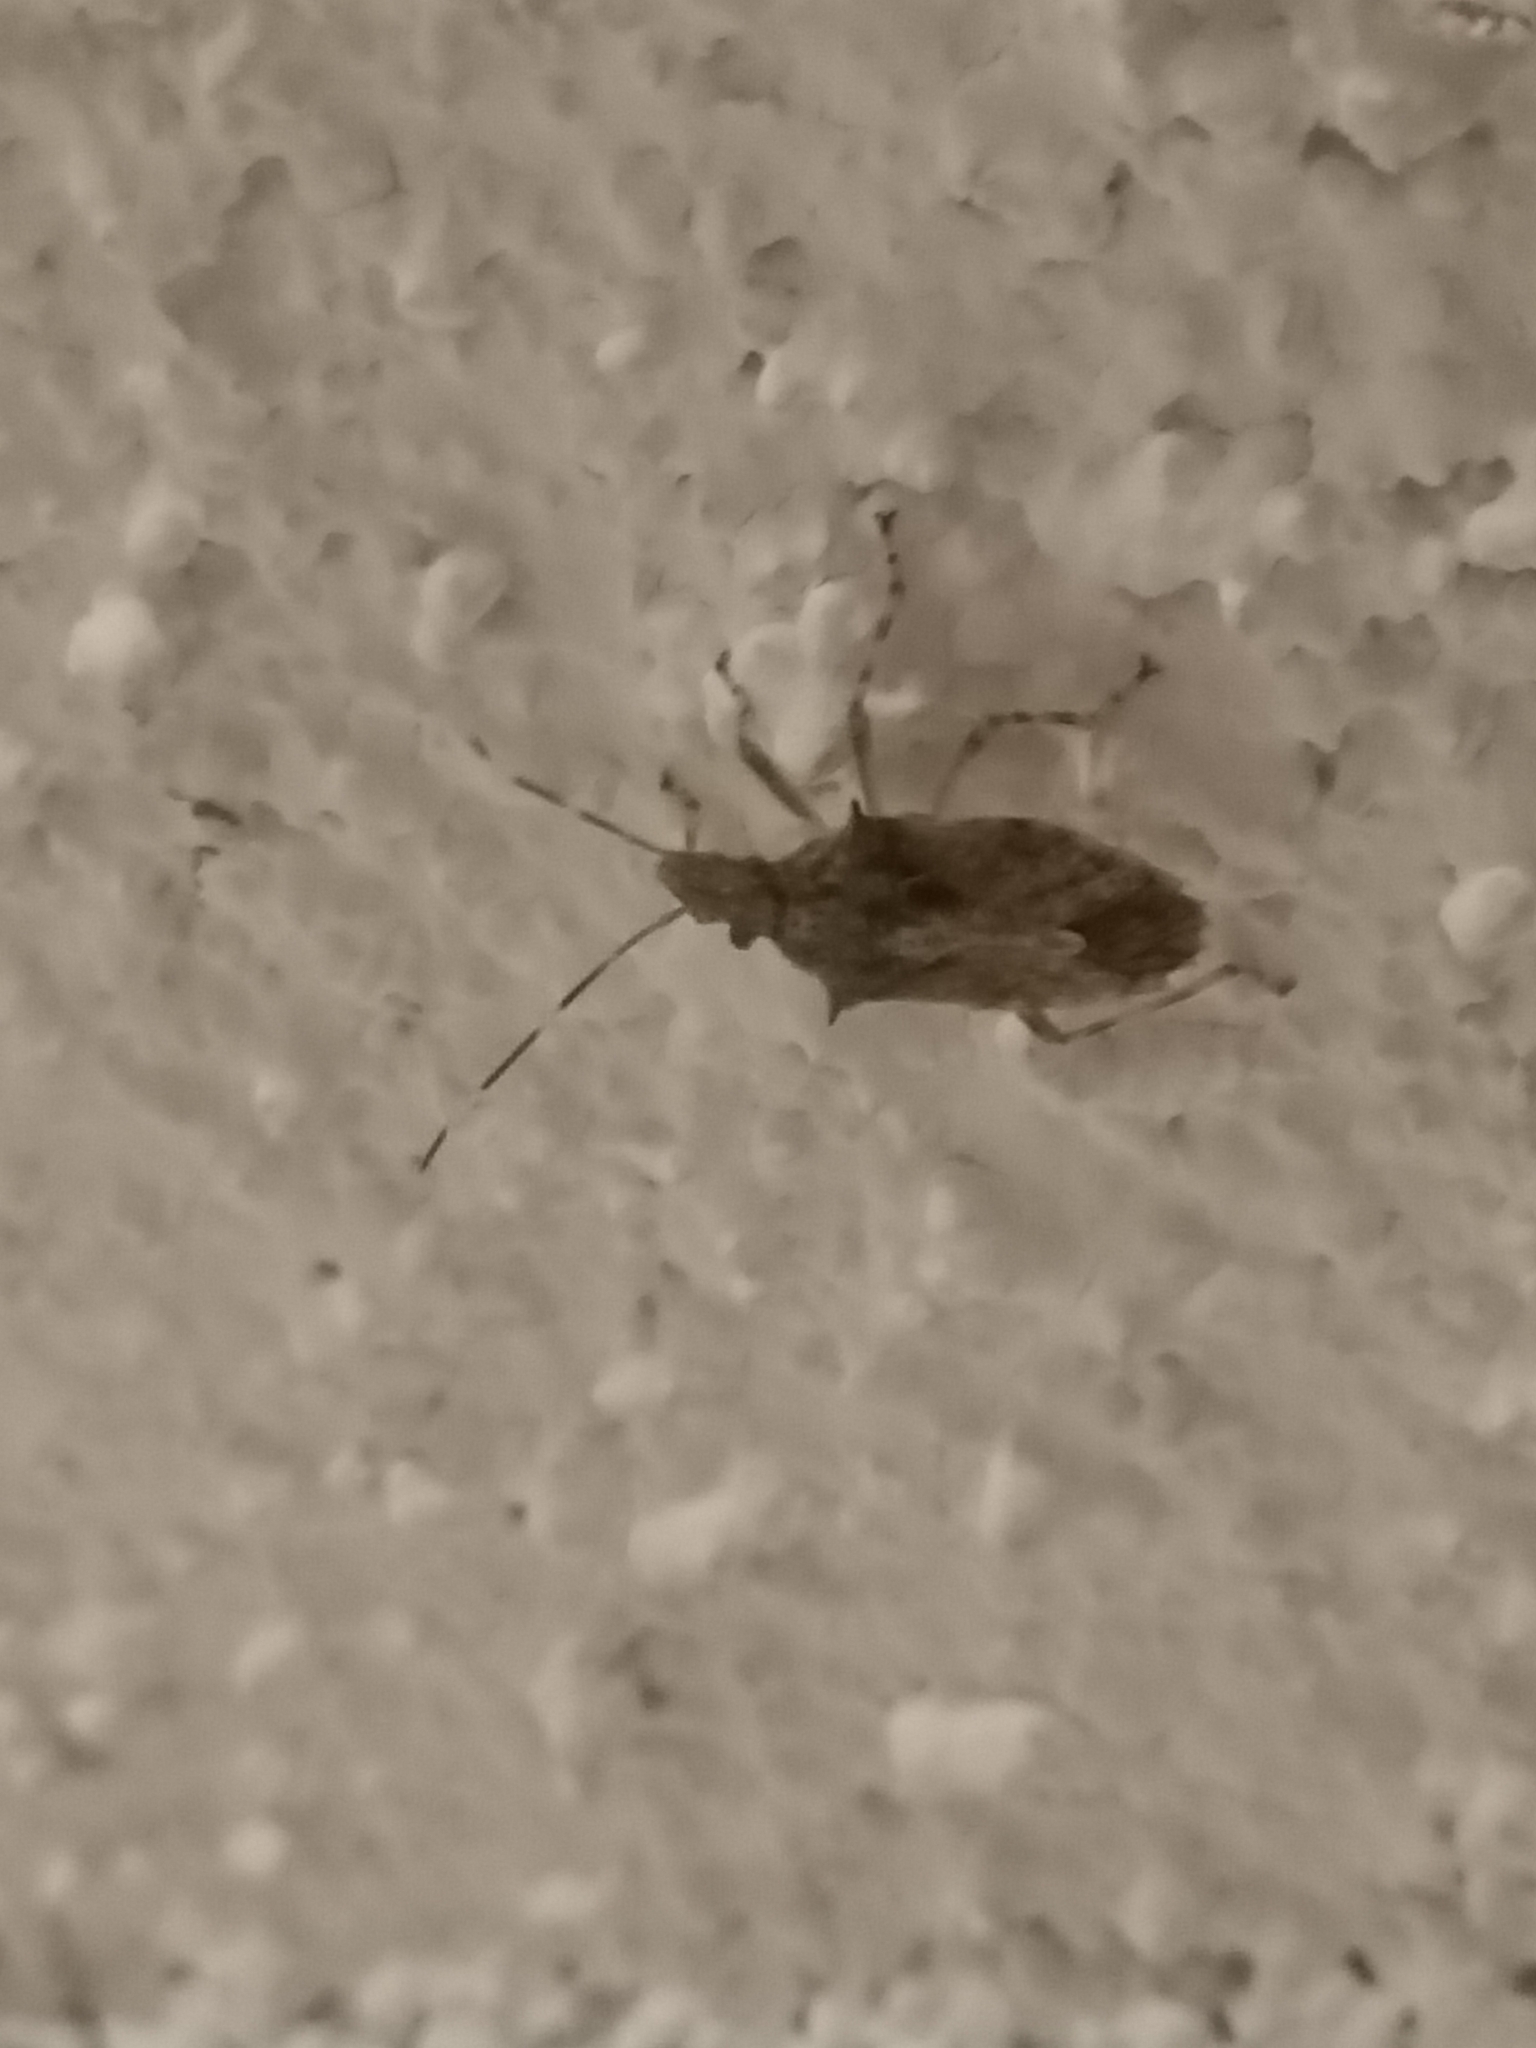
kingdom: Animalia
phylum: Arthropoda
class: Insecta
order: Hemiptera
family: Pentatomidae
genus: Bromocoris
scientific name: Bromocoris
